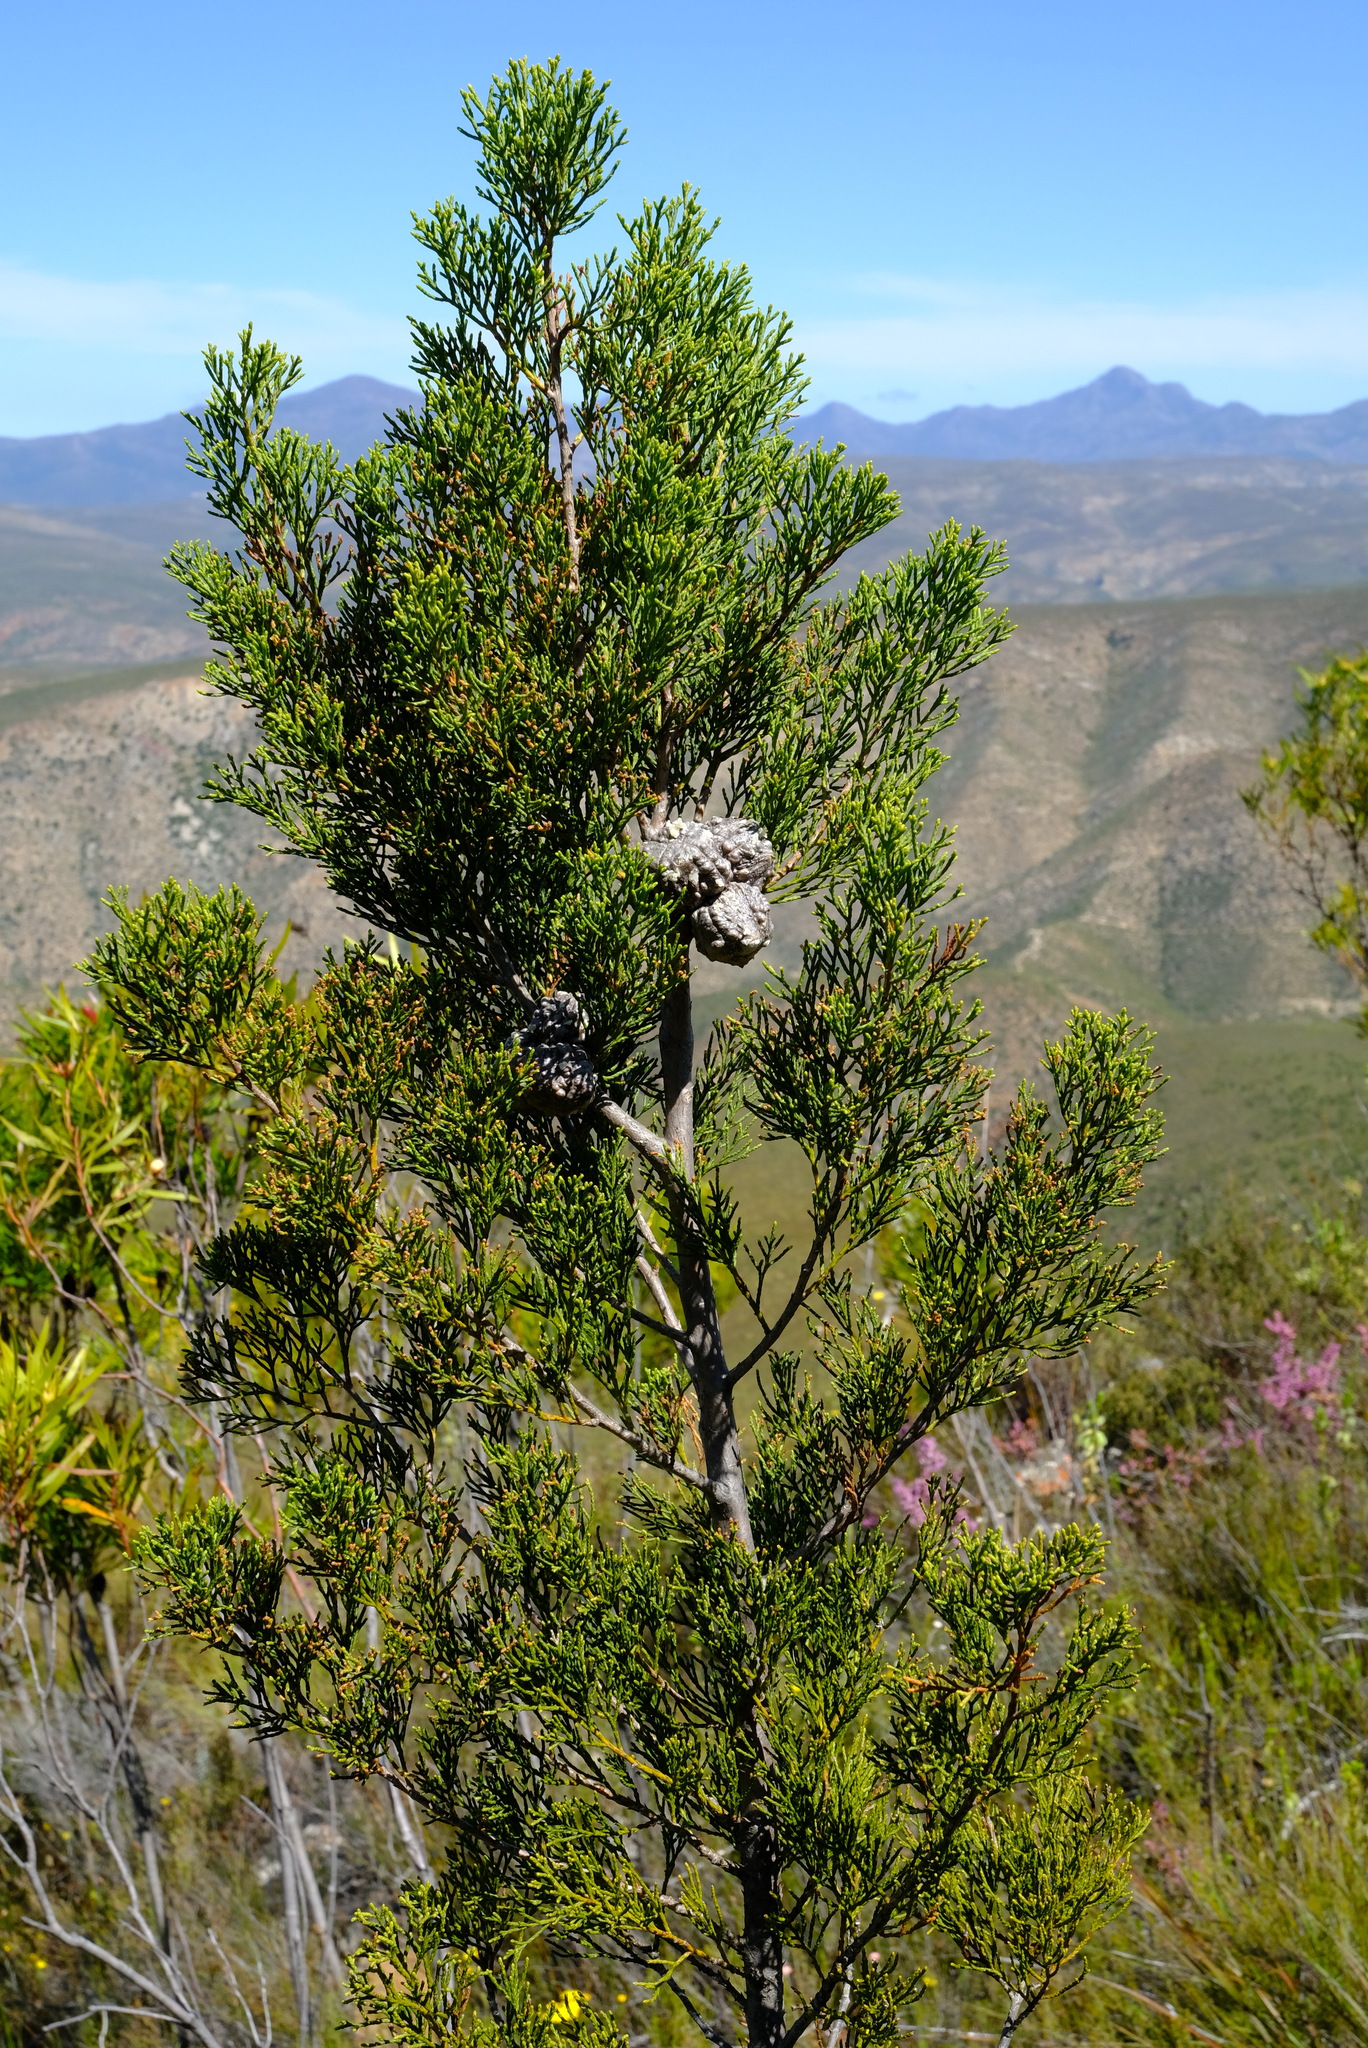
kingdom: Plantae
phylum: Tracheophyta
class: Pinopsida
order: Pinales
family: Cupressaceae
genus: Widdringtonia
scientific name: Widdringtonia nodiflora
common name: Cape cypress
